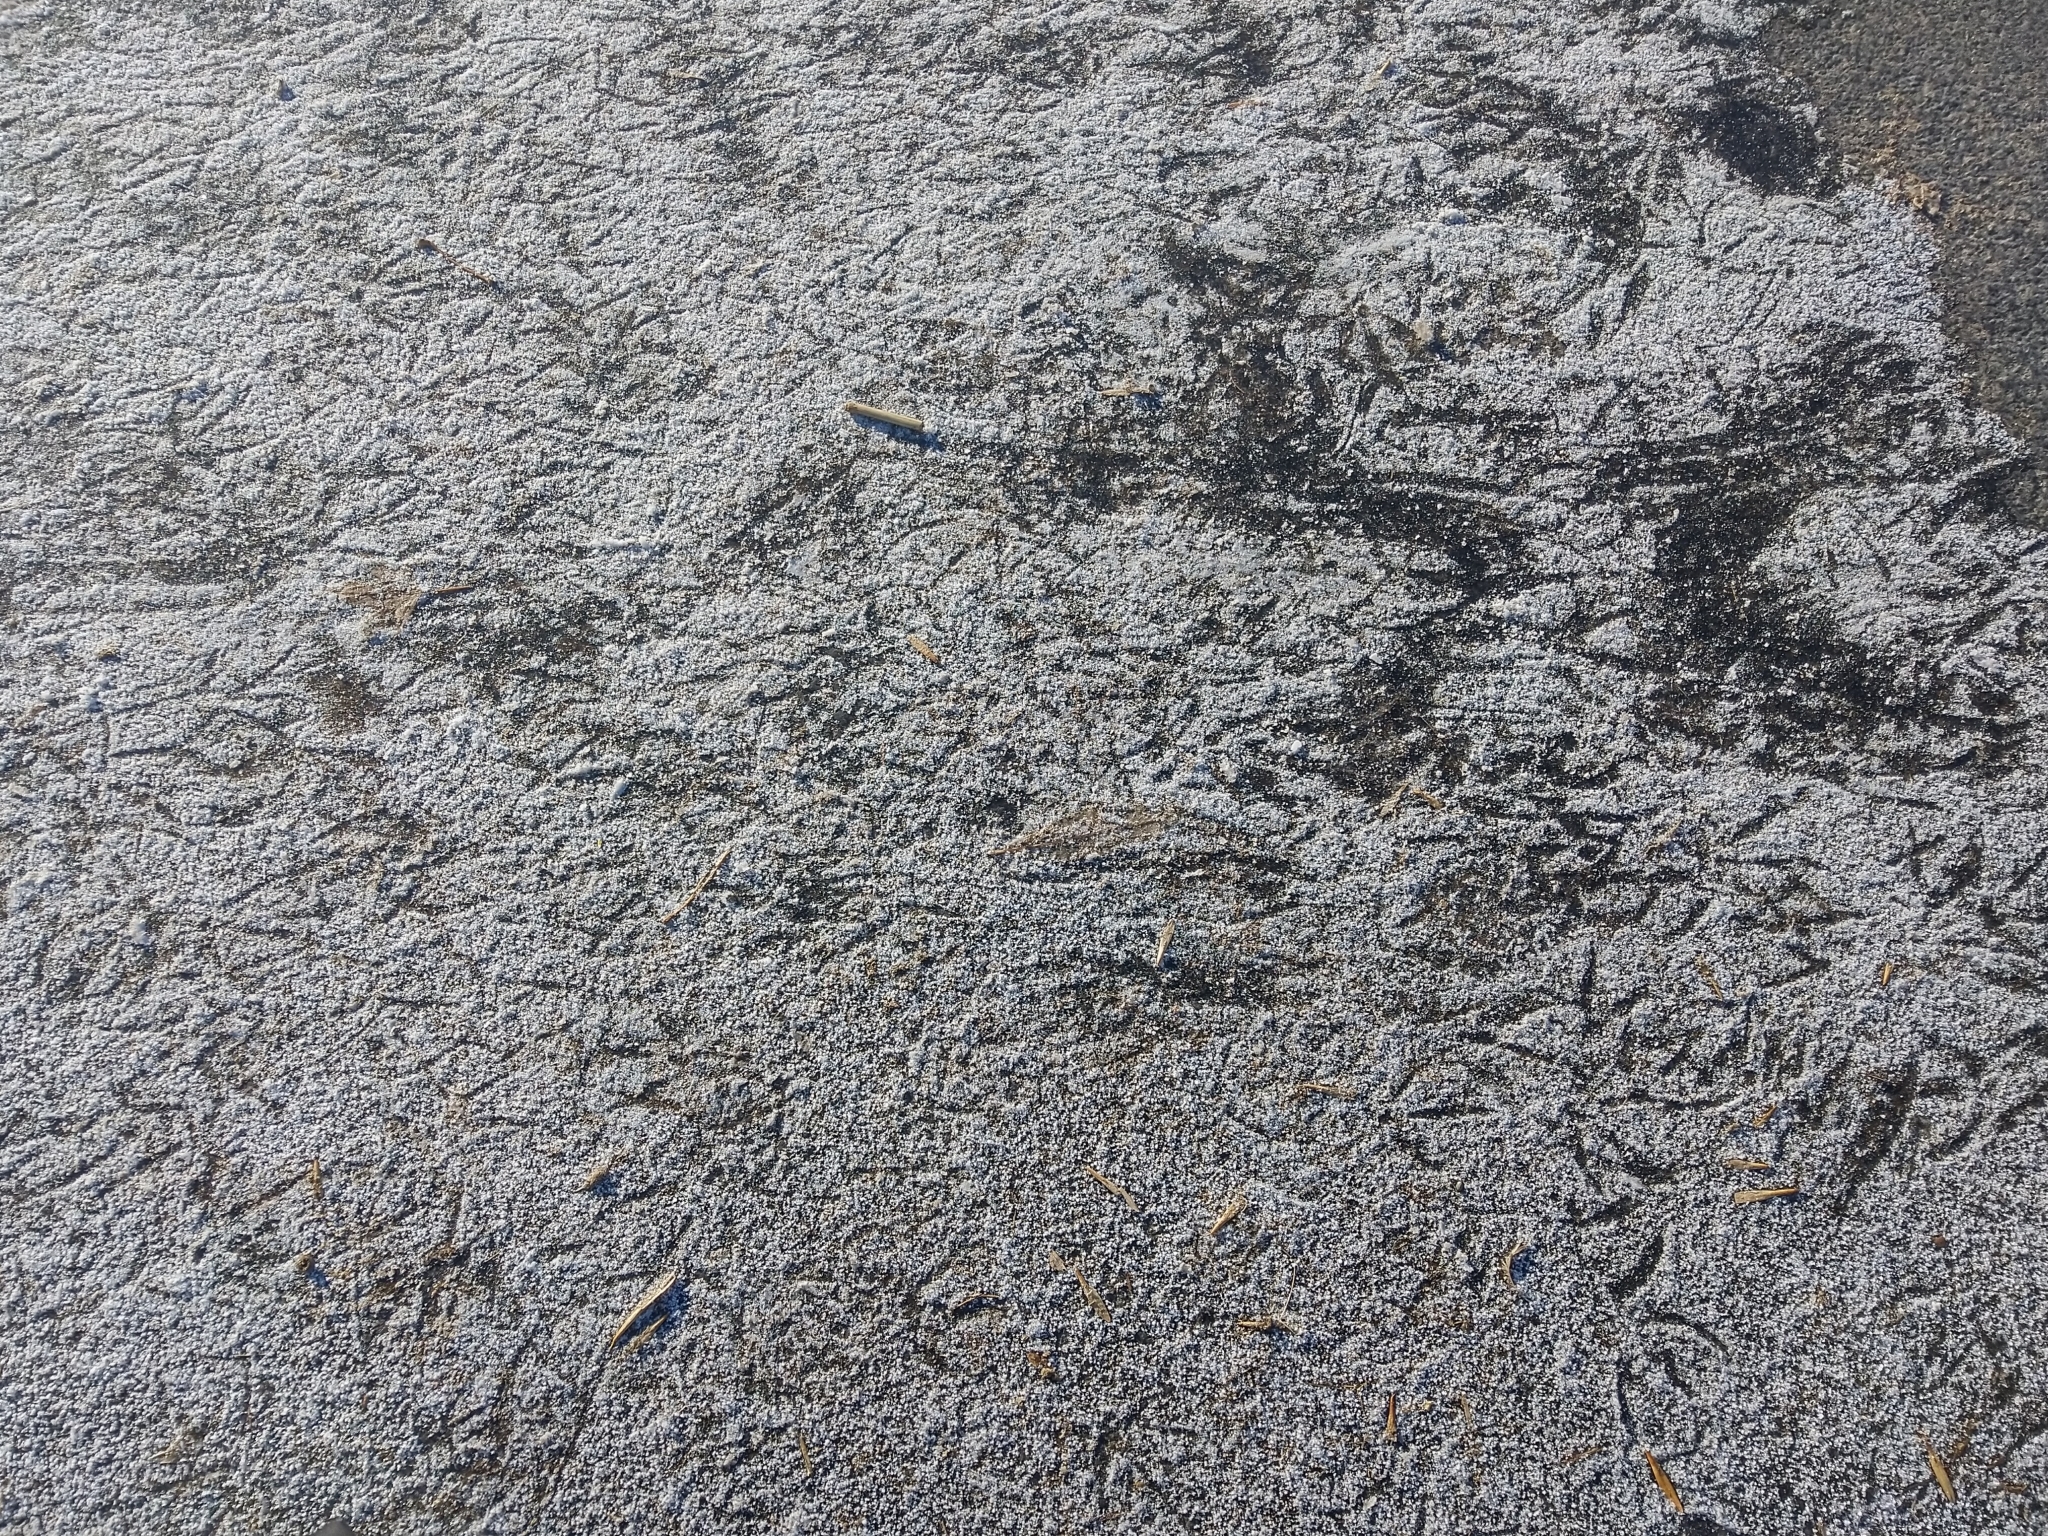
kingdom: Animalia
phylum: Chordata
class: Aves
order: Anseriformes
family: Anatidae
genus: Anas
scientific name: Anas platyrhynchos
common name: Mallard
